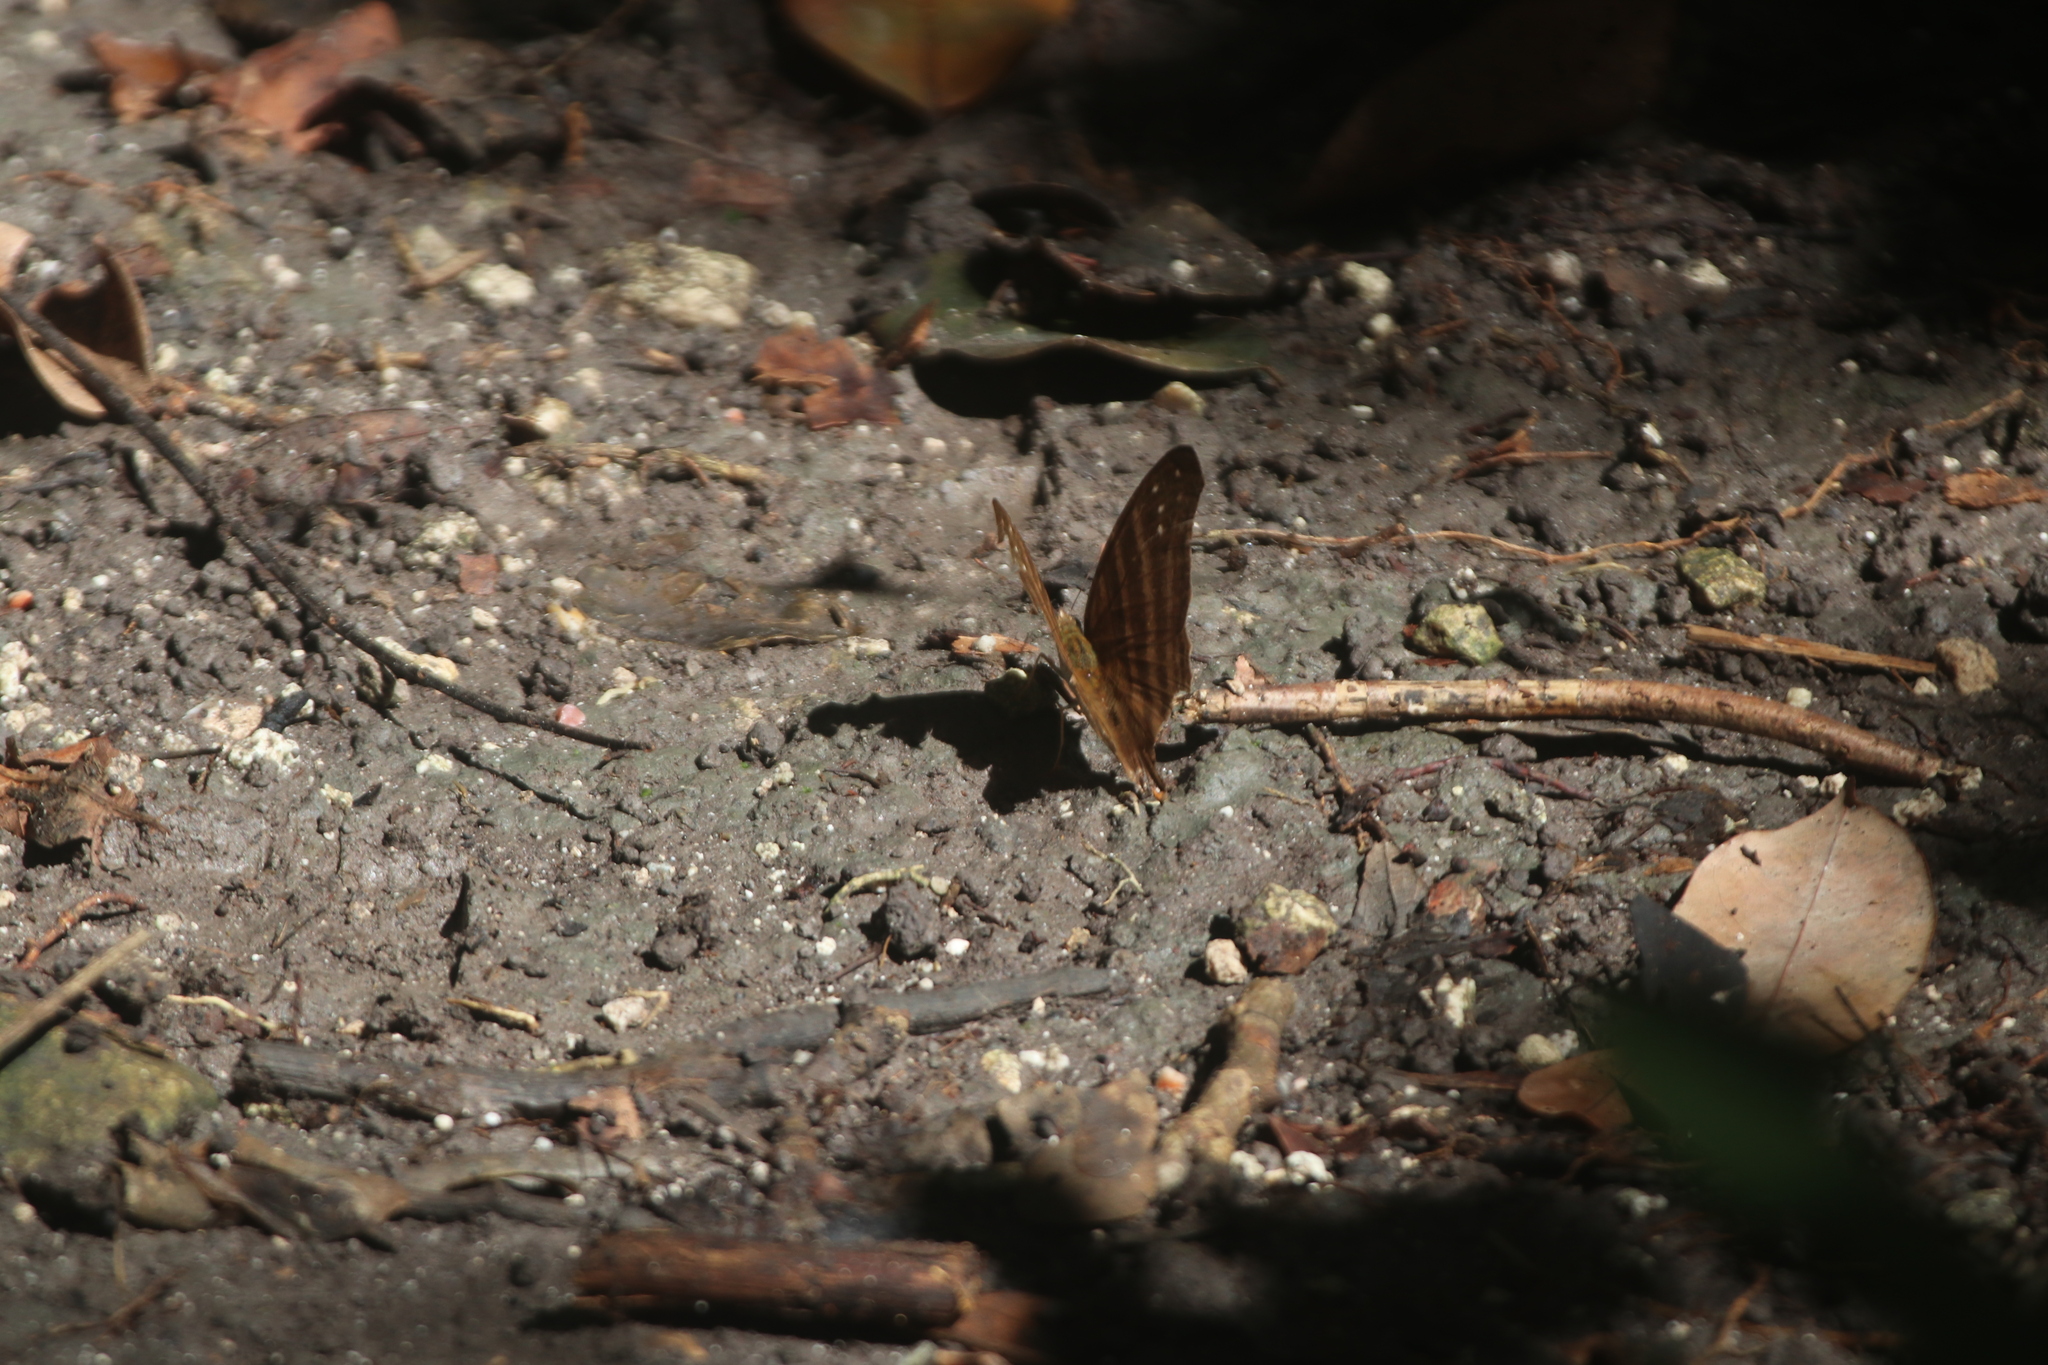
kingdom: Animalia
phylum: Arthropoda
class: Insecta
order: Lepidoptera
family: Nymphalidae
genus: Marpesia
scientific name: Marpesia chiron
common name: Many-banded daggerwing
